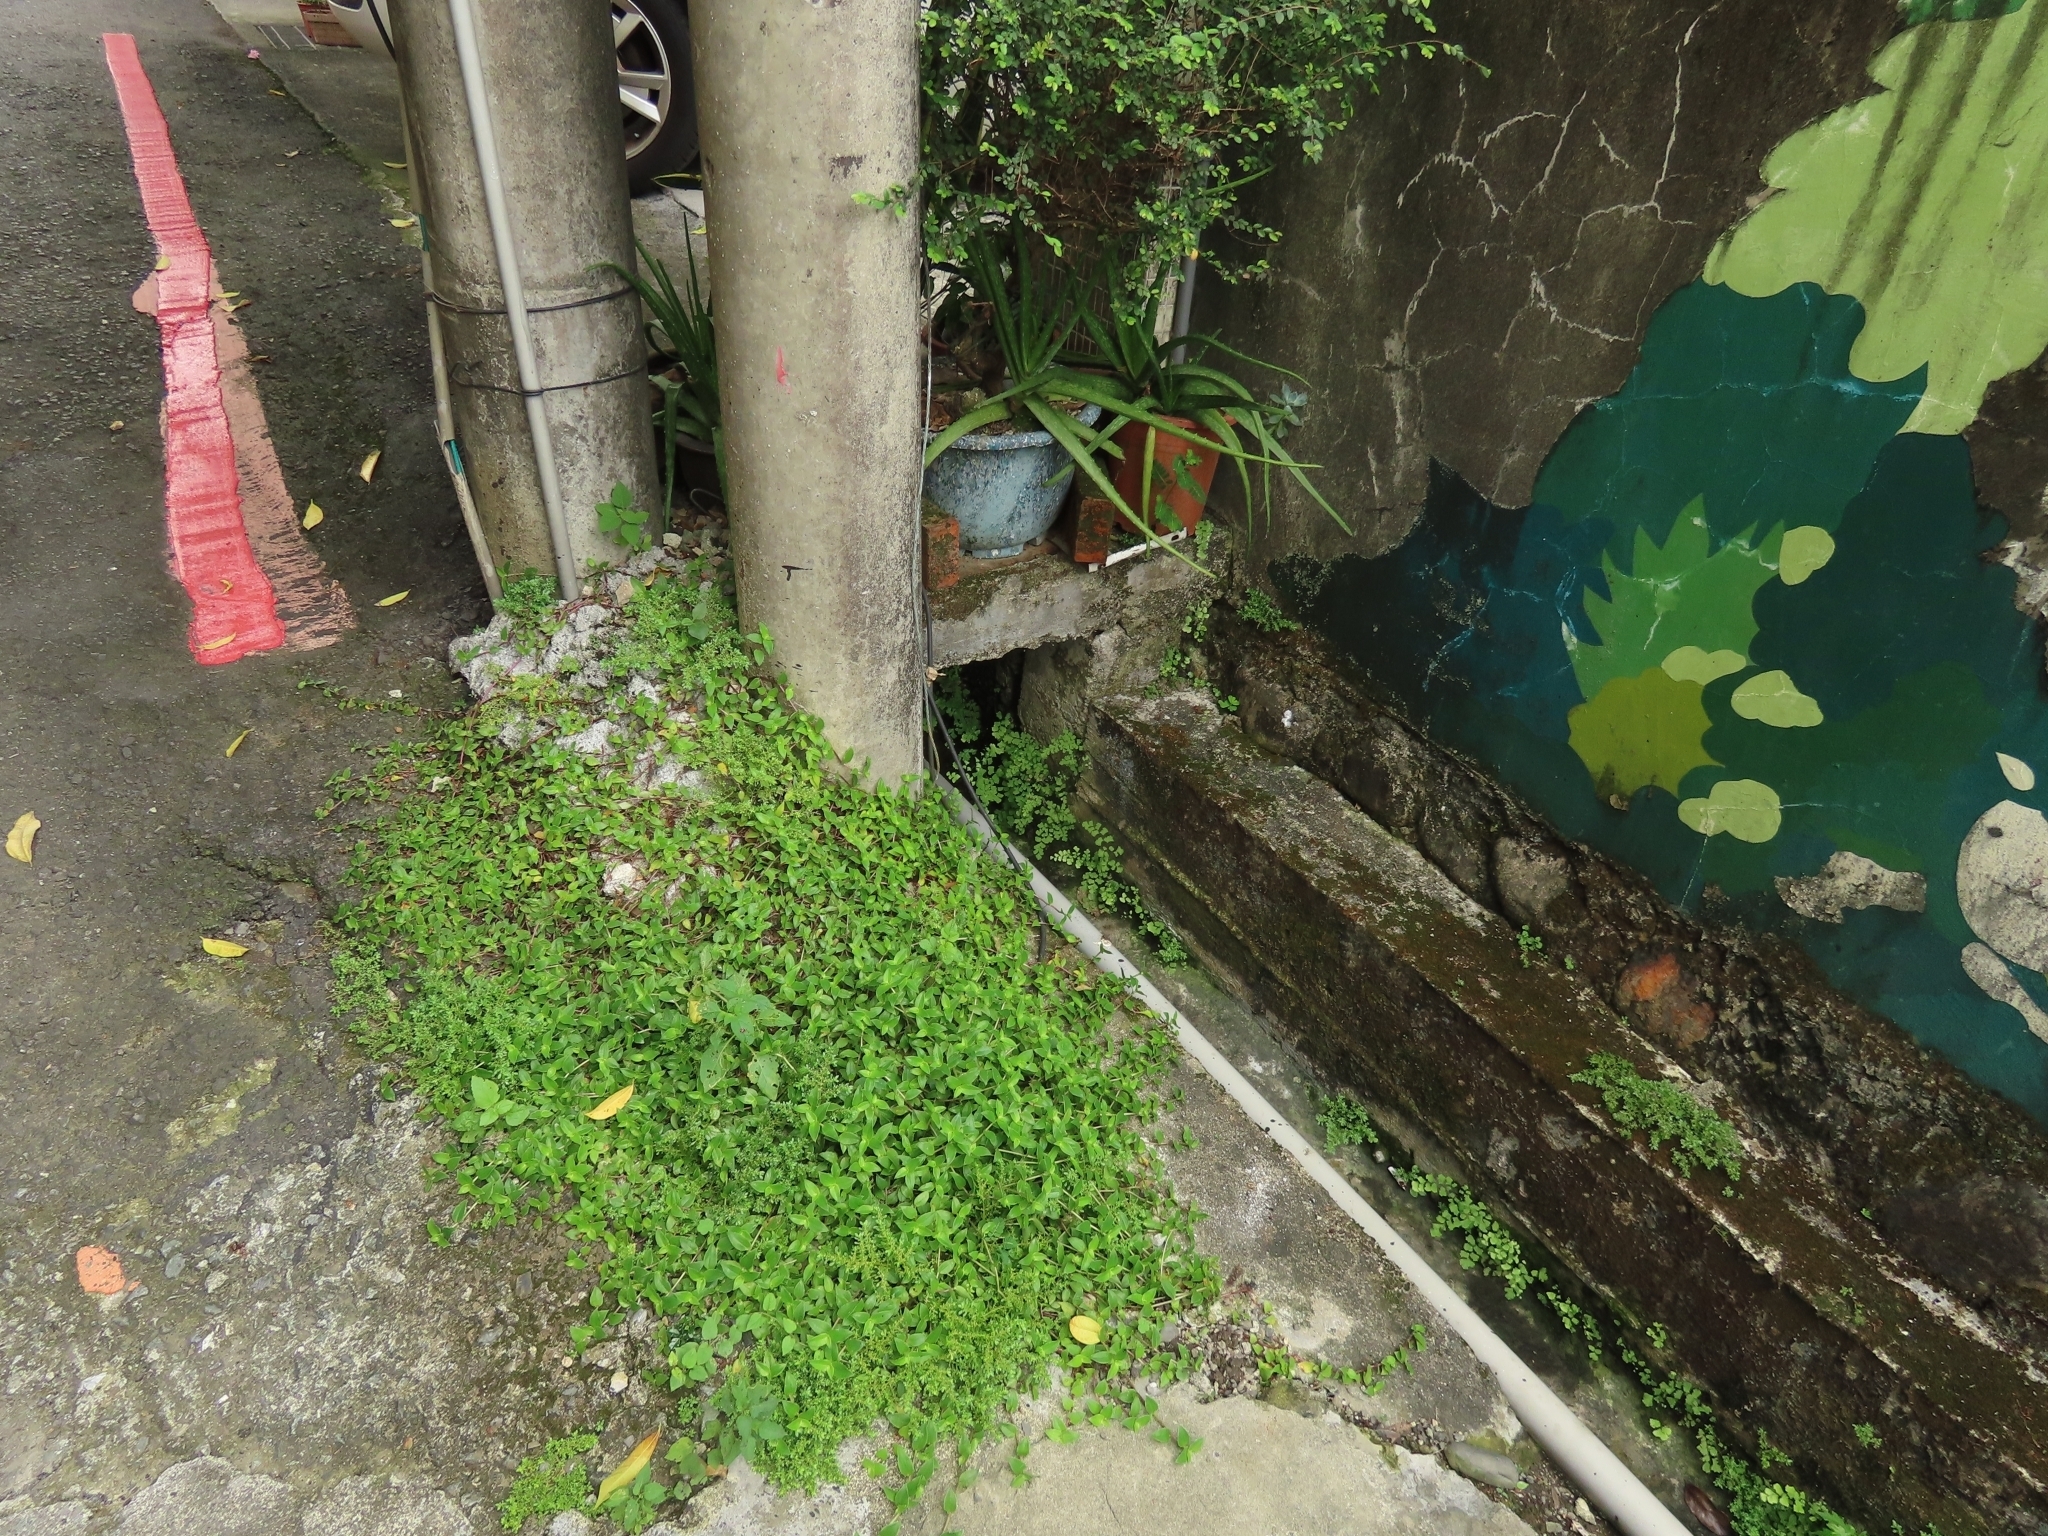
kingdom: Plantae
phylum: Tracheophyta
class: Liliopsida
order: Commelinales
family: Commelinaceae
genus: Callisia
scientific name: Callisia repens
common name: Creeping inchplant
